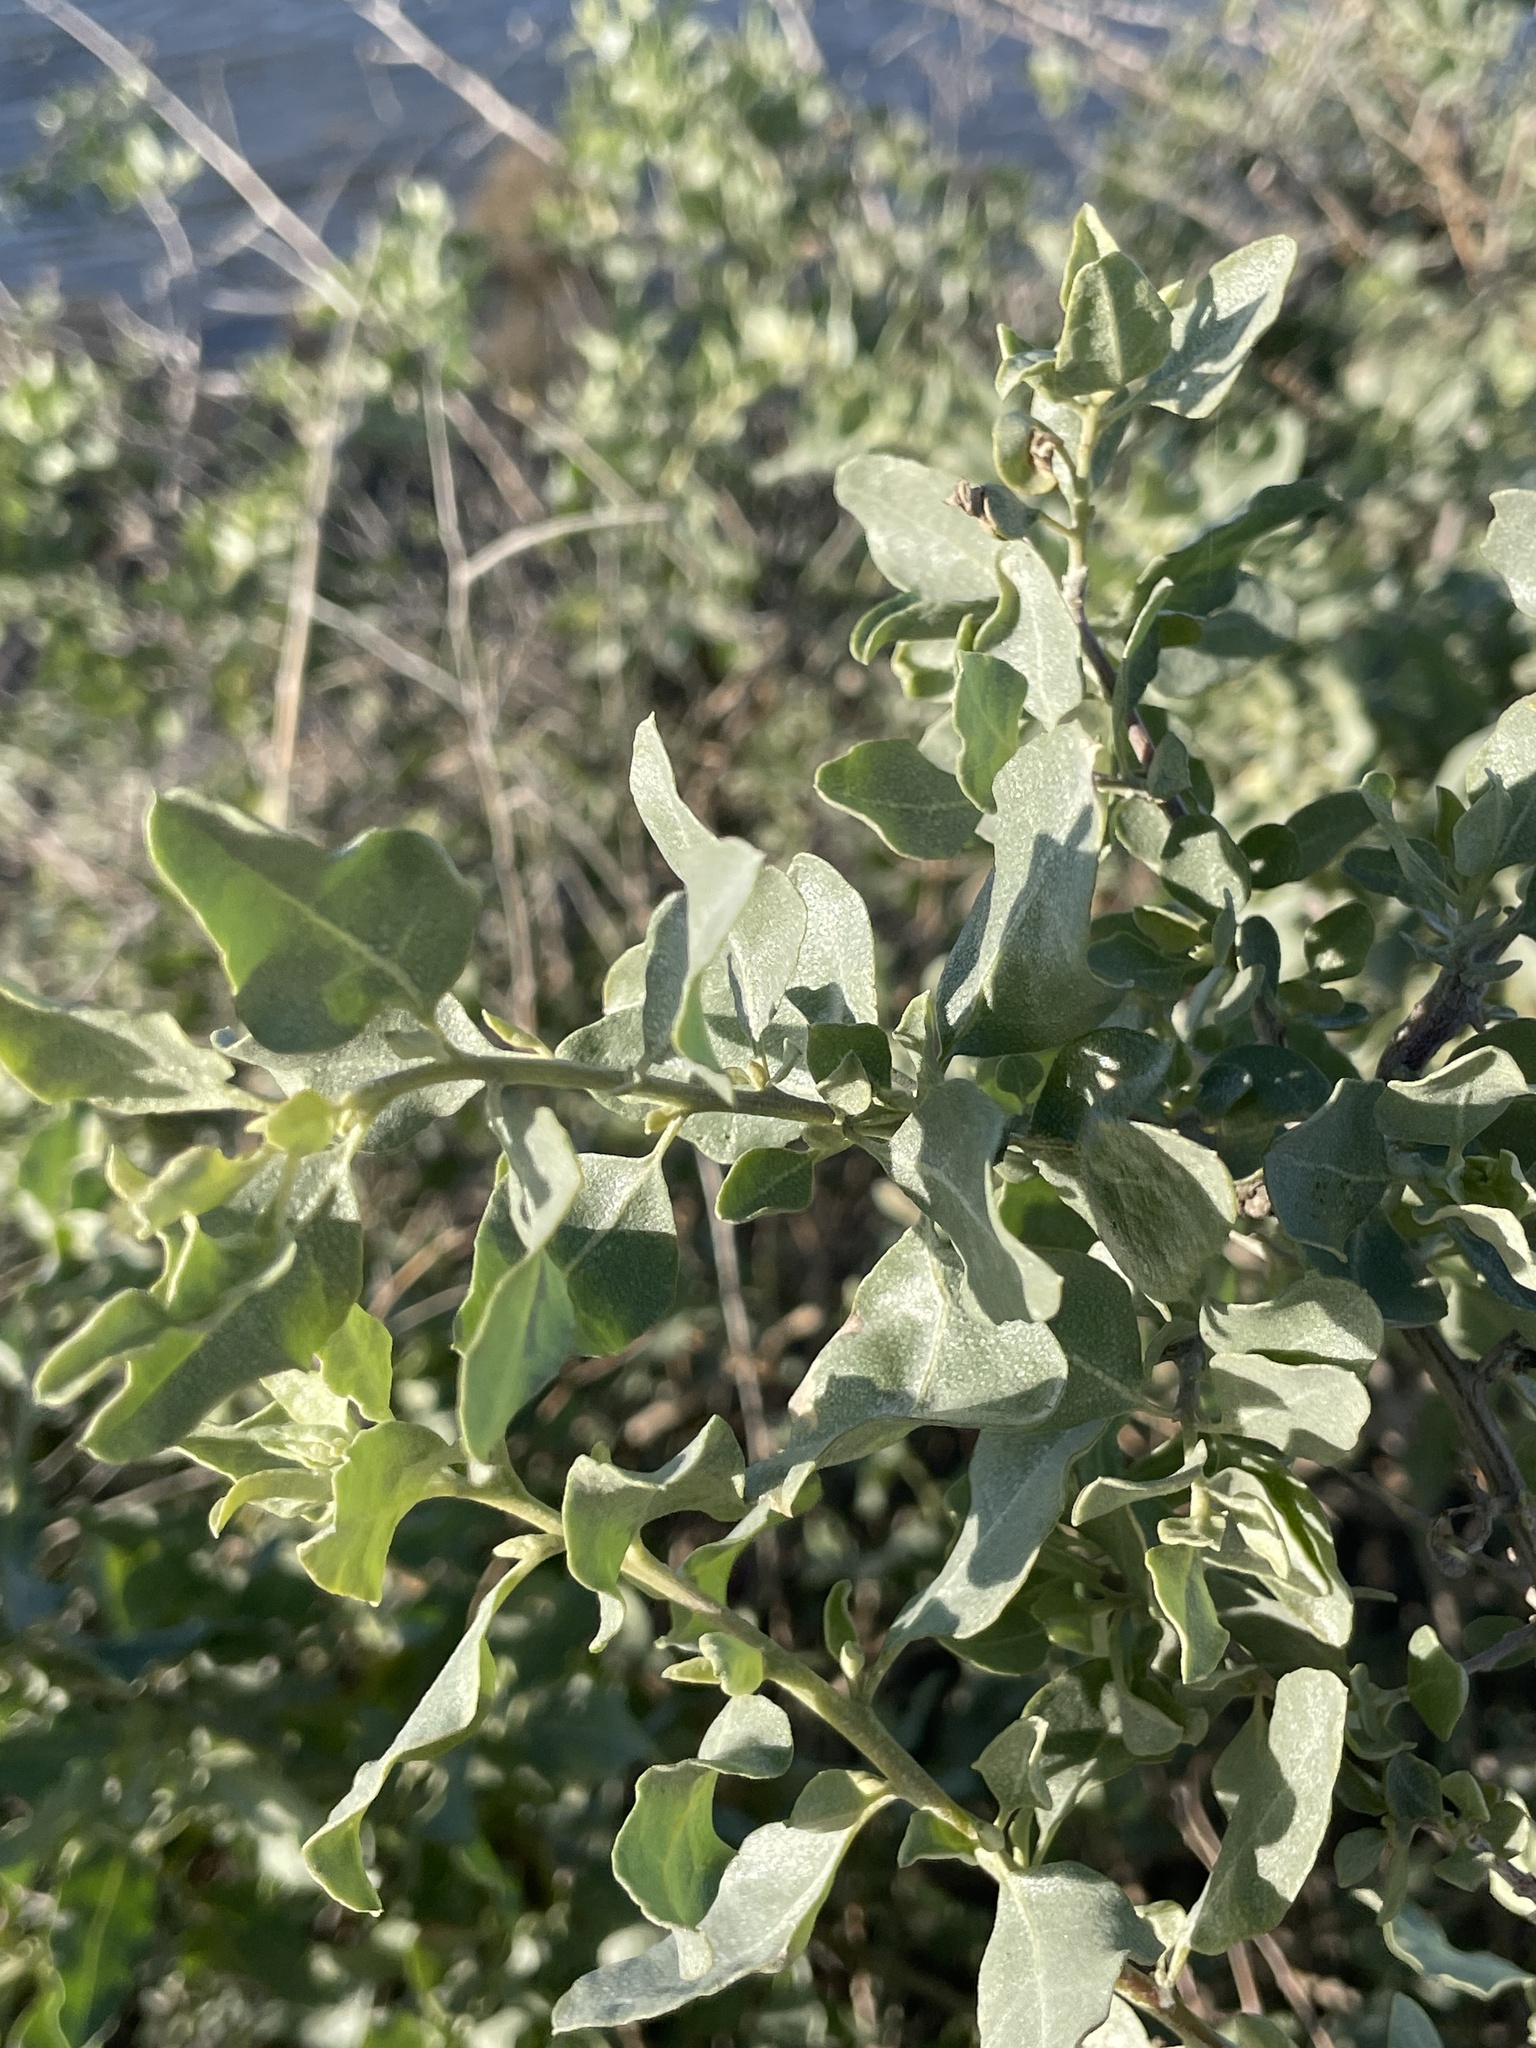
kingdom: Plantae
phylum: Tracheophyta
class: Magnoliopsida
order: Caryophyllales
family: Amaranthaceae
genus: Atriplex
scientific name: Atriplex lentiformis
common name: Big saltbush
